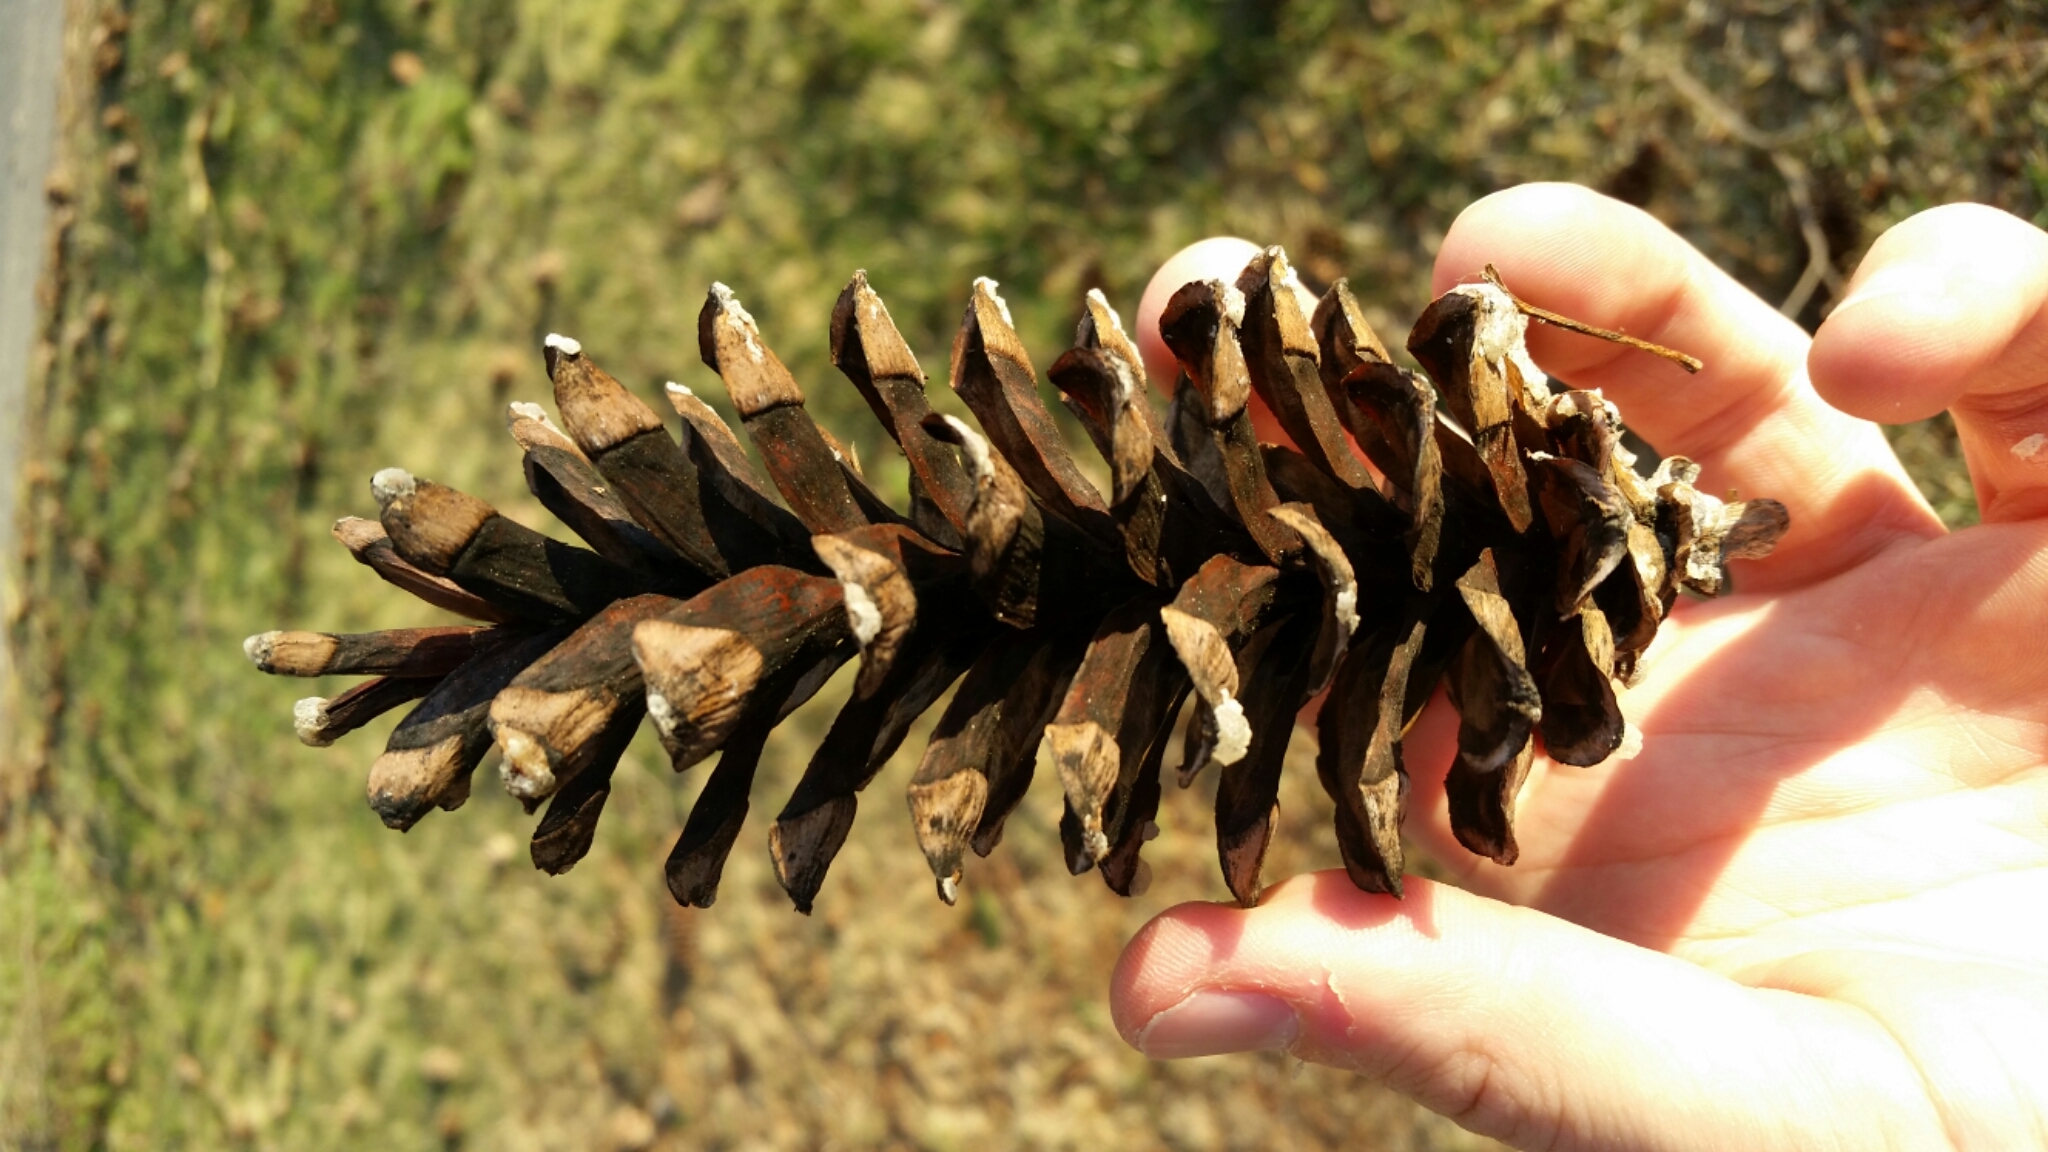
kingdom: Plantae
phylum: Tracheophyta
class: Pinopsida
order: Pinales
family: Pinaceae
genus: Pinus
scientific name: Pinus strobus
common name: Weymouth pine
